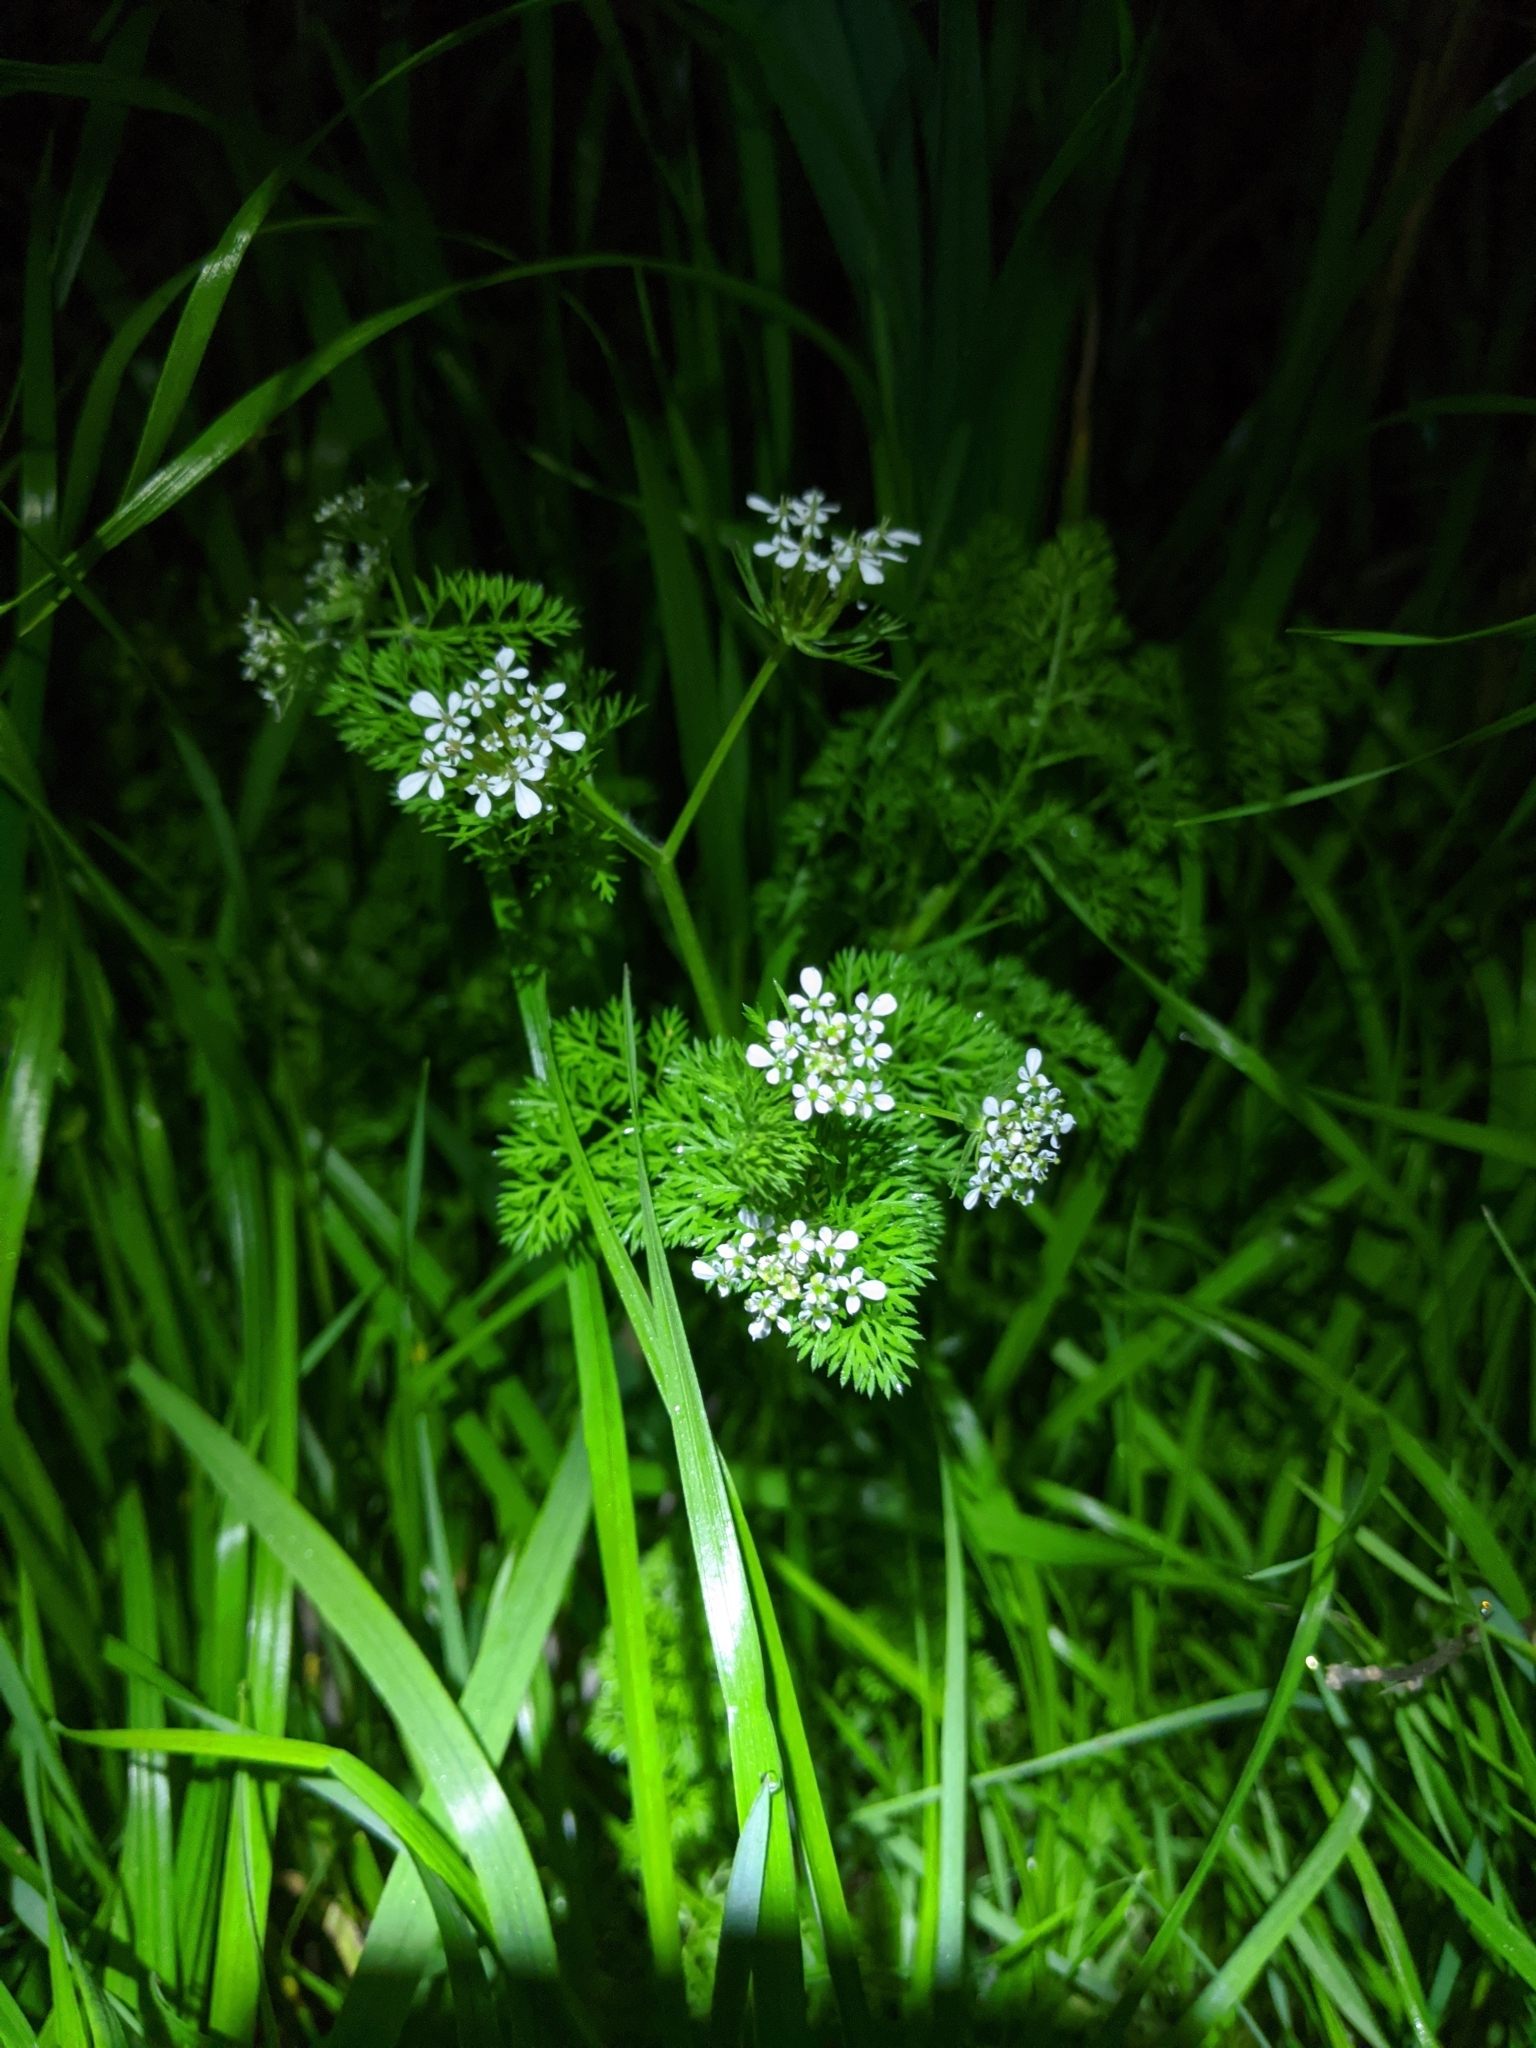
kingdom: Plantae
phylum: Tracheophyta
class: Magnoliopsida
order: Apiales
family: Apiaceae
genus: Scandix
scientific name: Scandix pecten-veneris
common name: Shepherd's-needle
